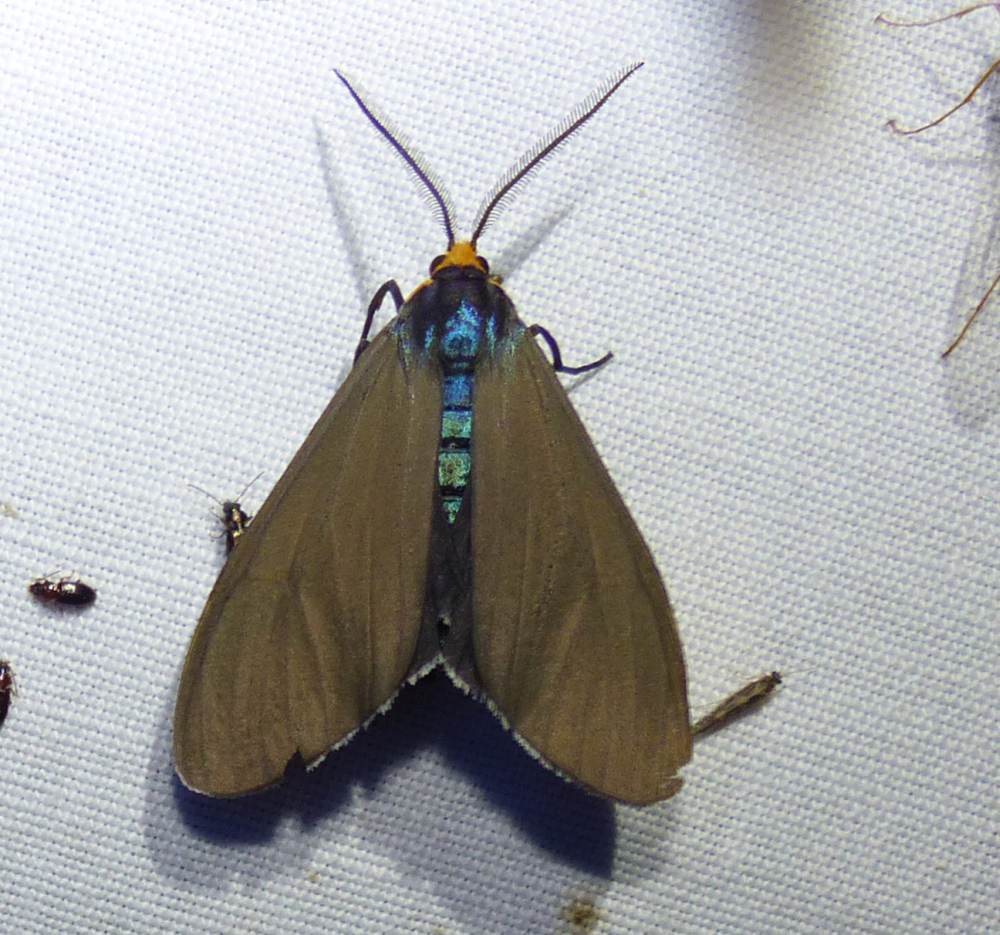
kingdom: Animalia
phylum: Arthropoda
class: Insecta
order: Lepidoptera
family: Erebidae
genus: Ctenucha
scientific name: Ctenucha virginica
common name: Virginia ctenucha moth
